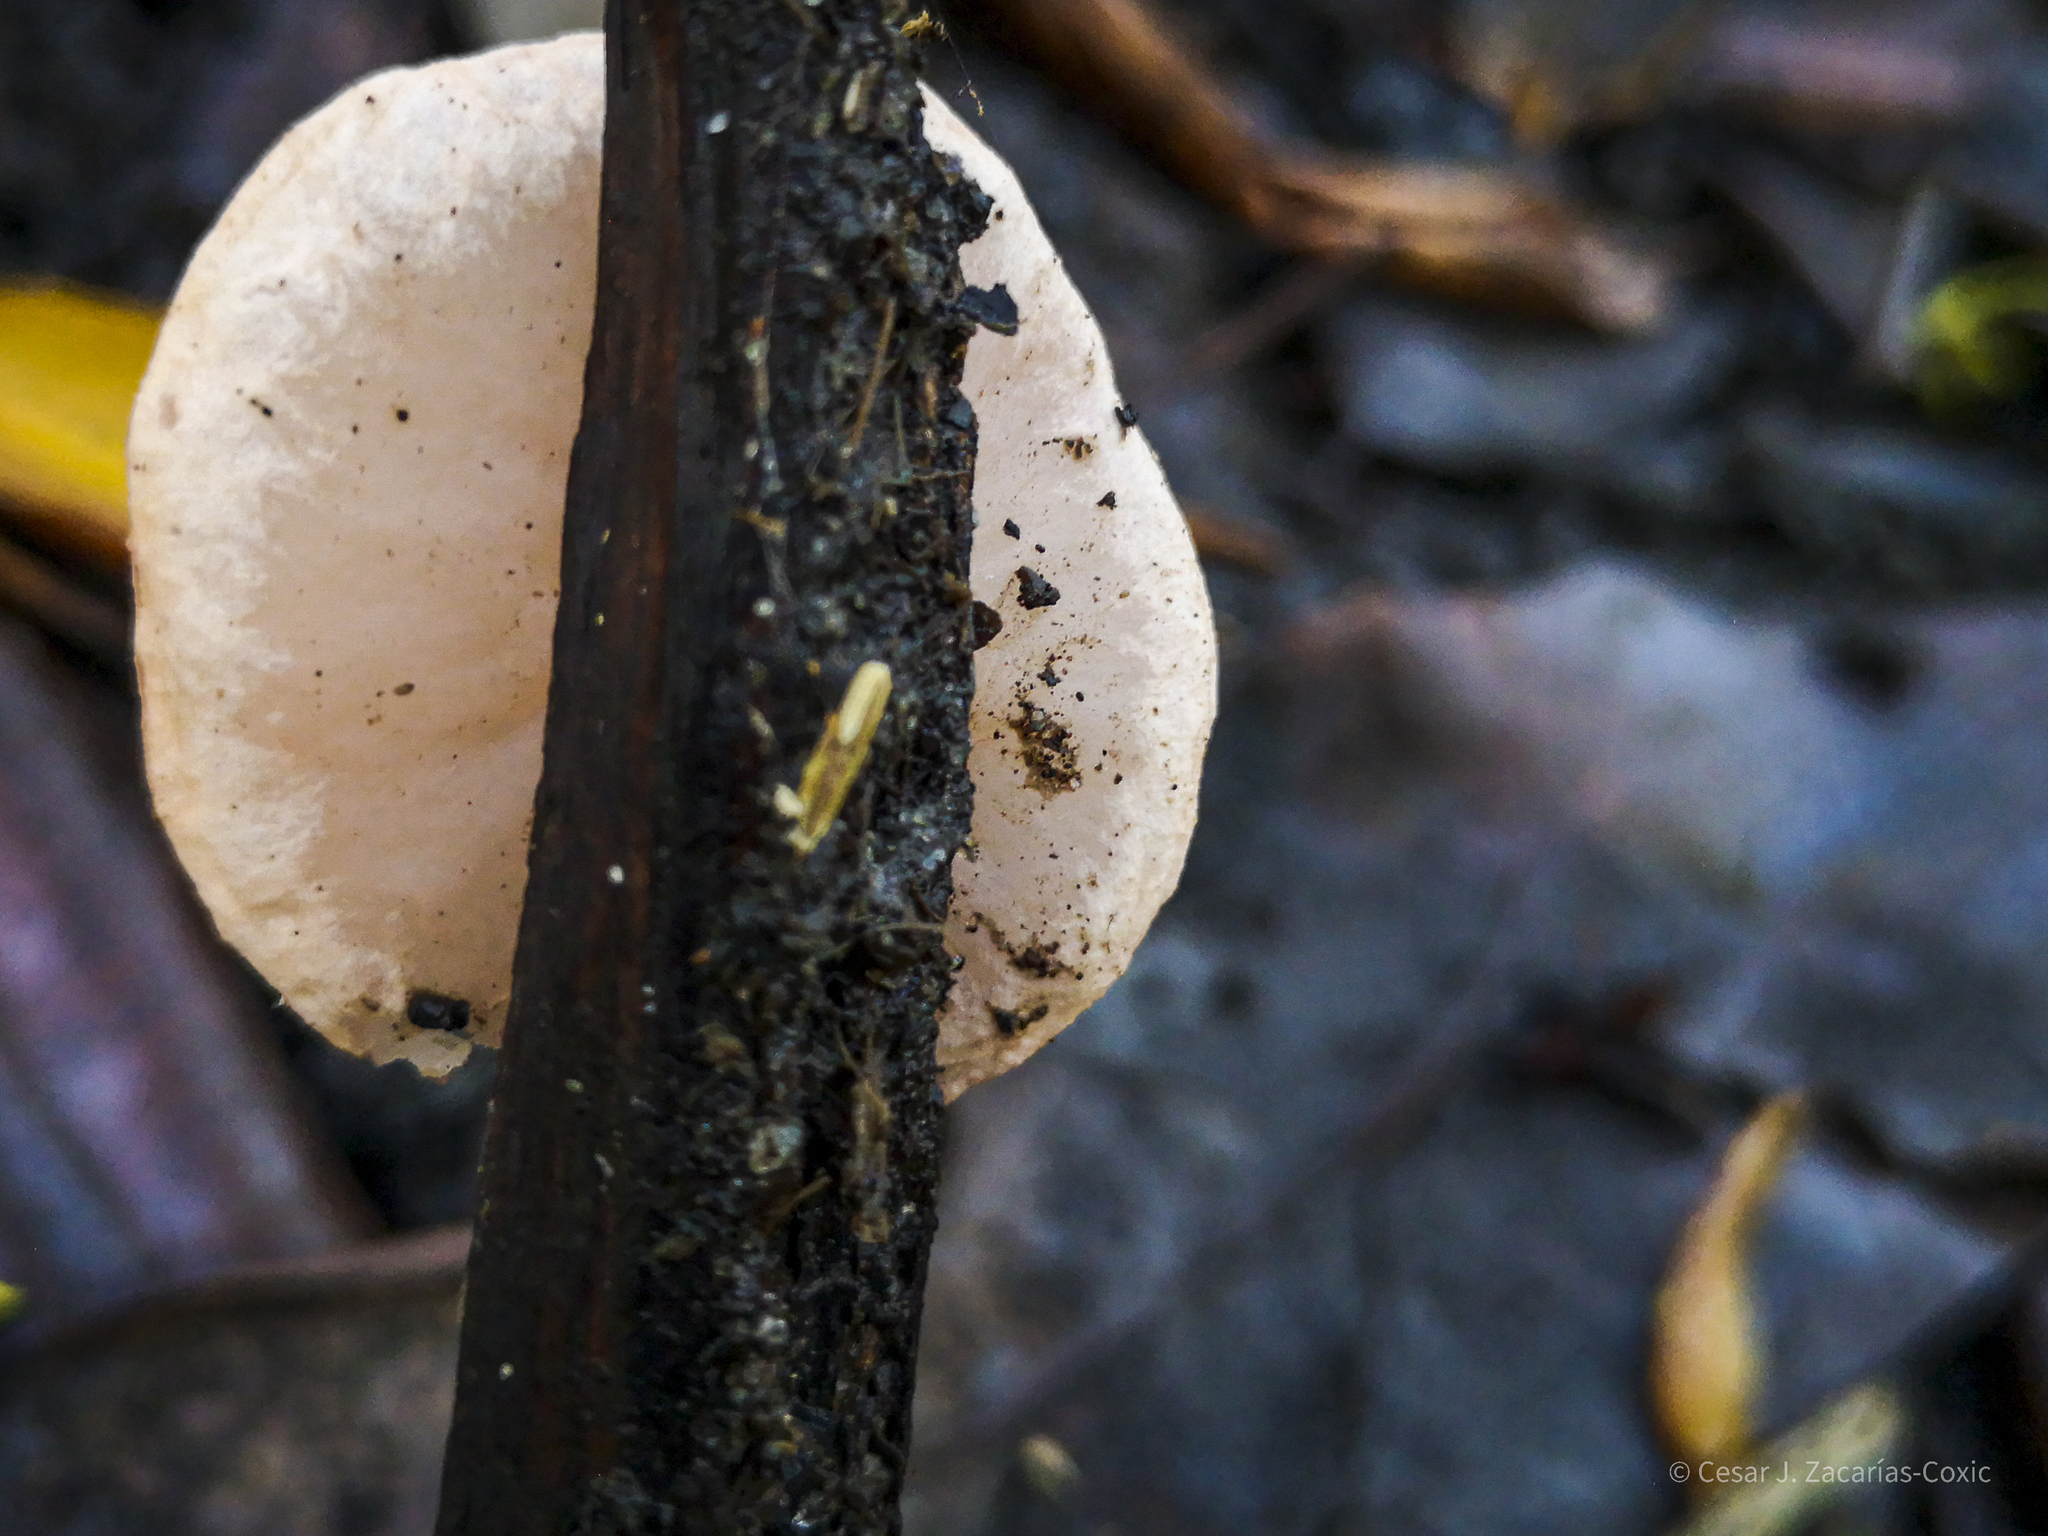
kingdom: Fungi
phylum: Ascomycota
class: Pezizomycetes
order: Pezizales
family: Sarcoscyphaceae
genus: Phillipsia
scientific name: Phillipsia domingensis
